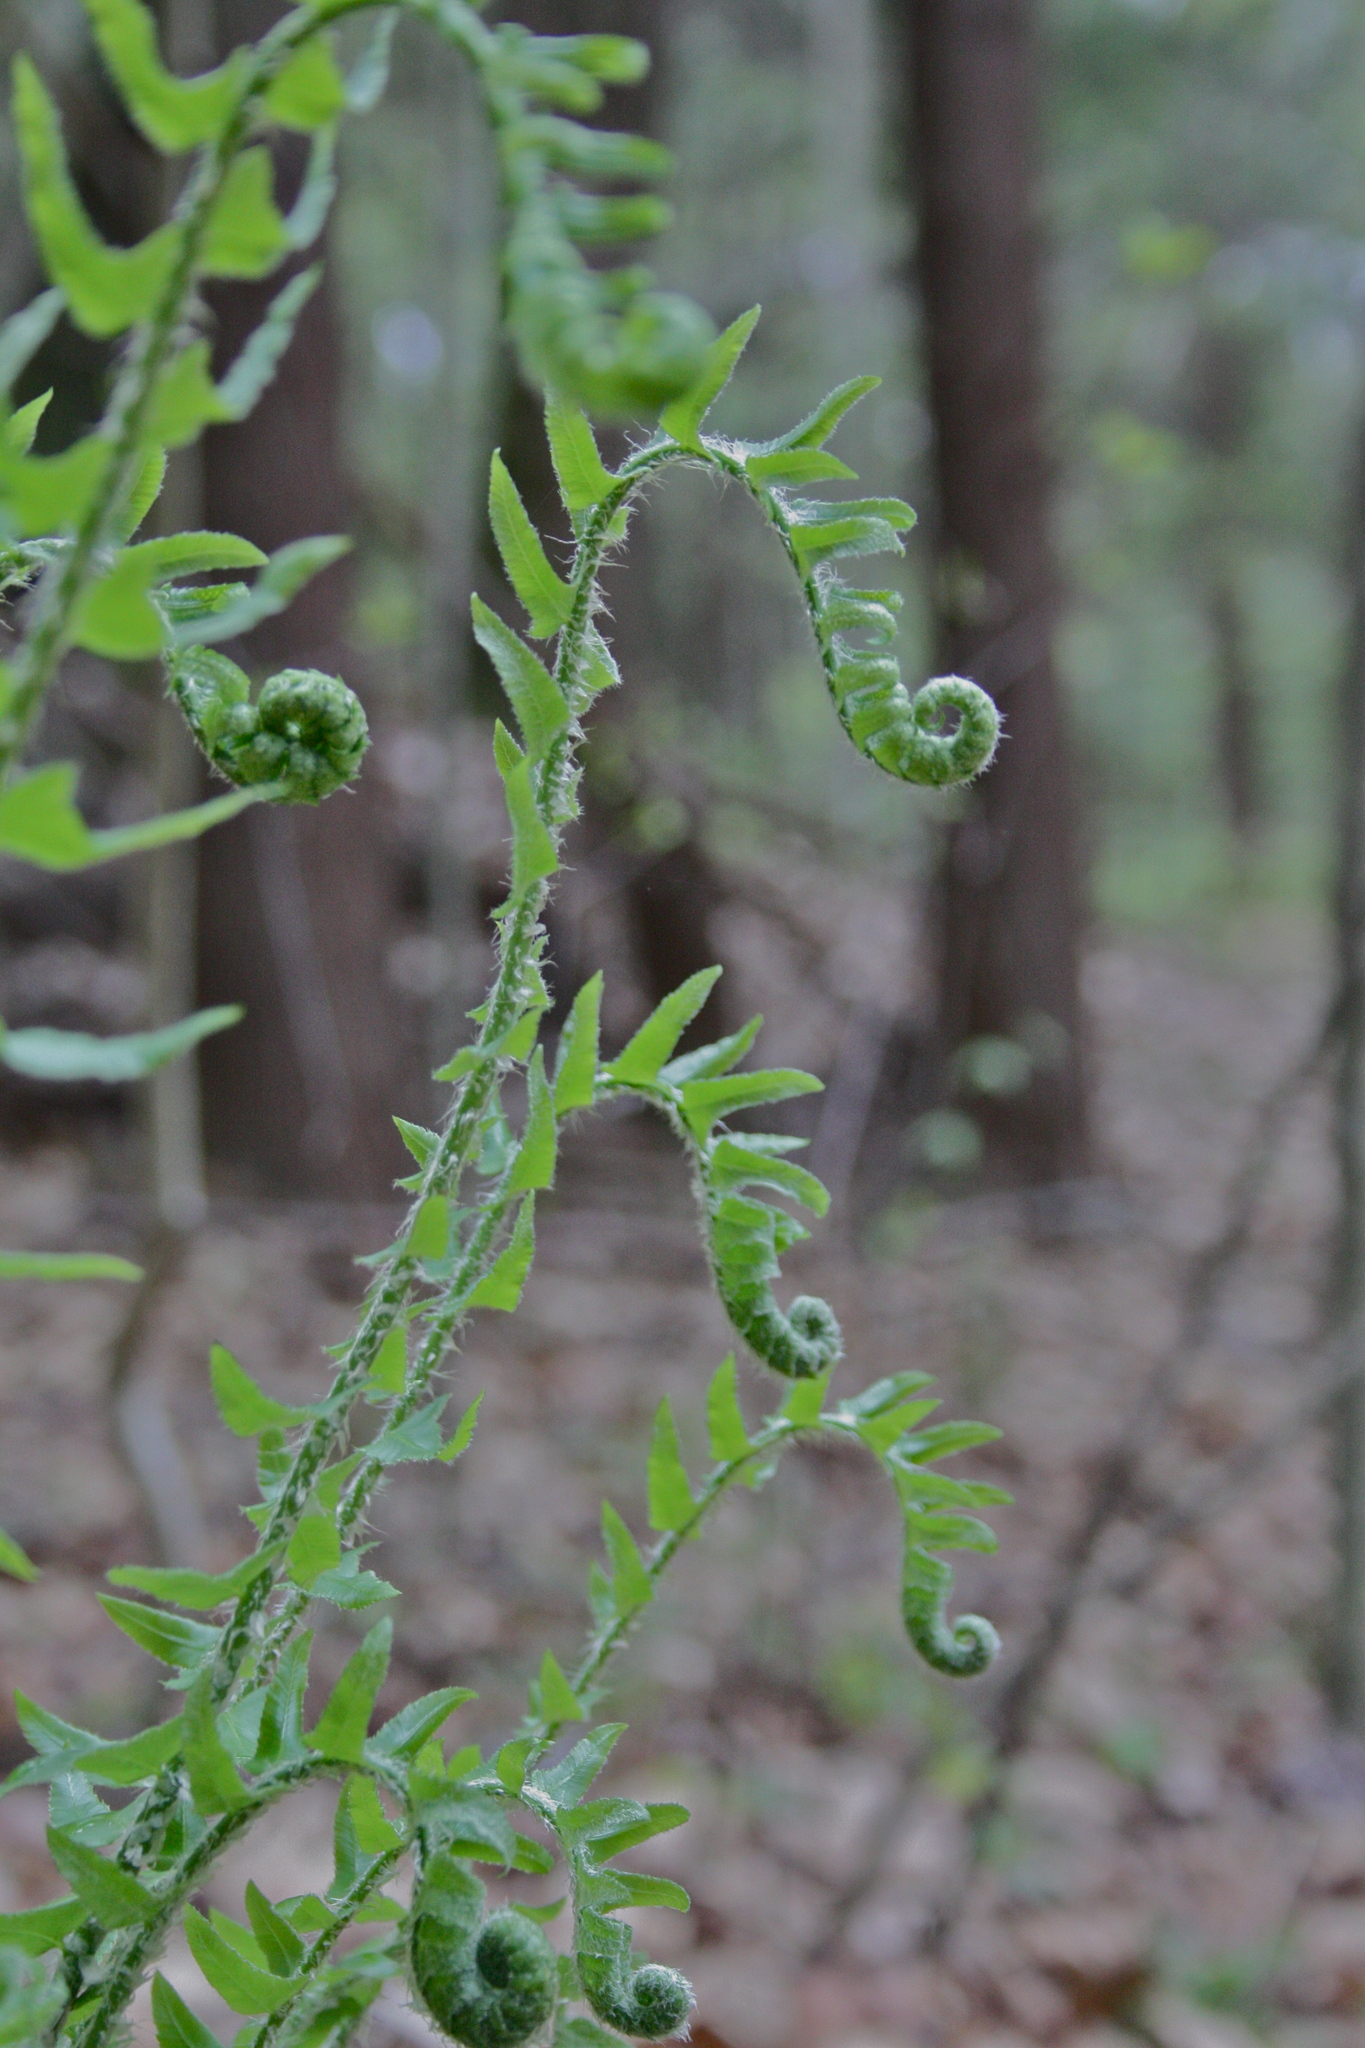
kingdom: Plantae
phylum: Tracheophyta
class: Polypodiopsida
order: Polypodiales
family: Dryopteridaceae
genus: Polystichum
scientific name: Polystichum acrostichoides
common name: Christmas fern
